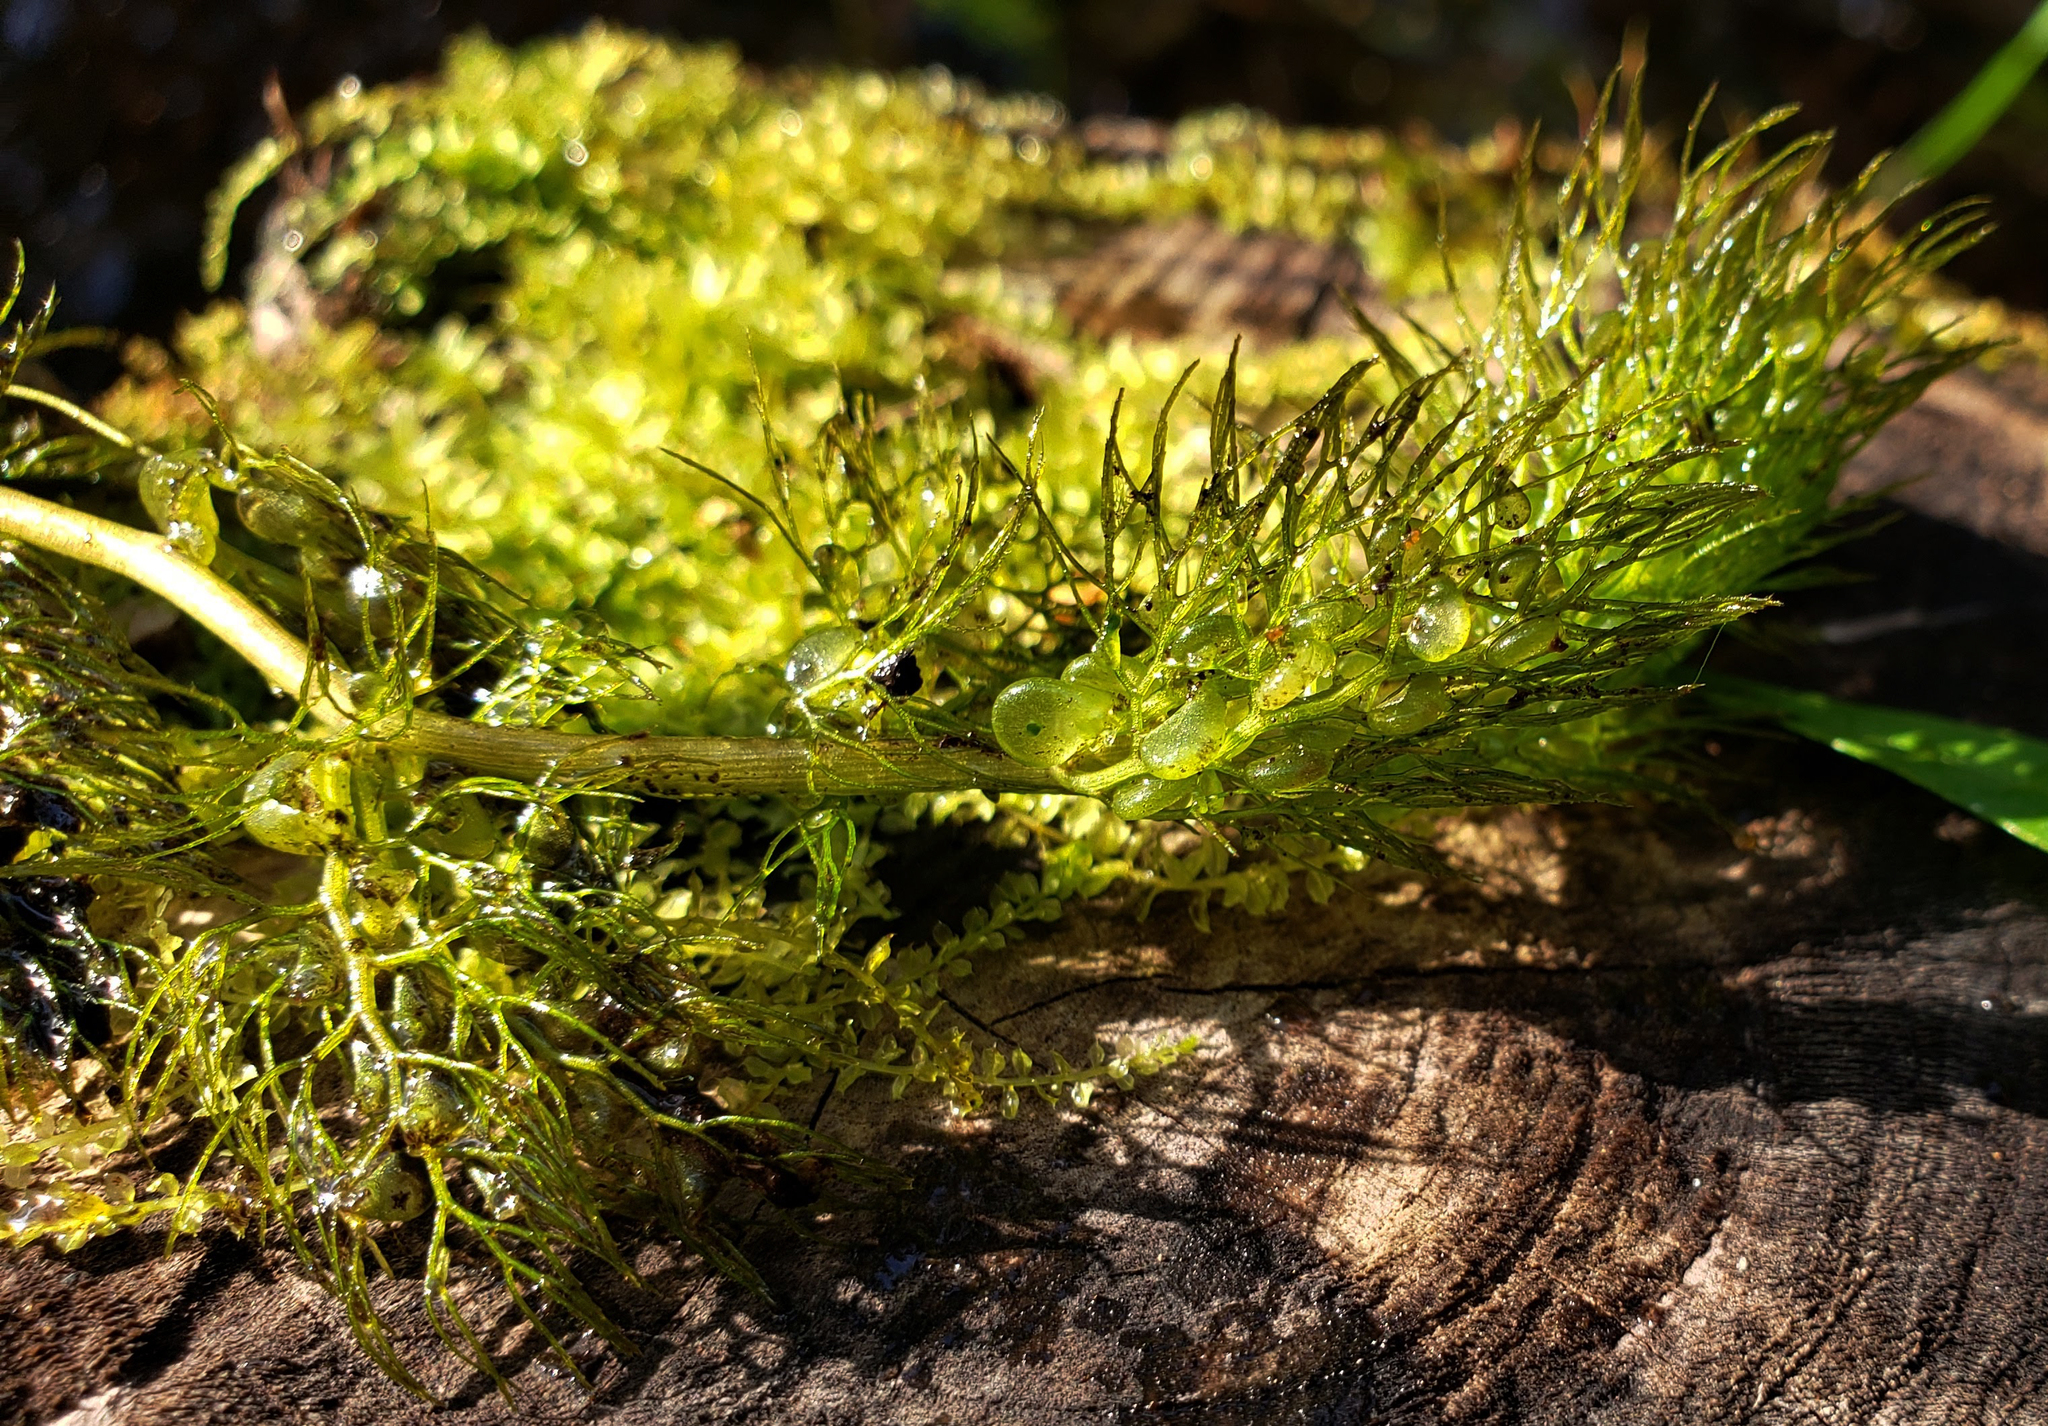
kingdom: Plantae
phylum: Tracheophyta
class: Magnoliopsida
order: Lamiales
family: Lentibulariaceae
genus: Utricularia
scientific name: Utricularia macrorhiza
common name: Common bladderwort
